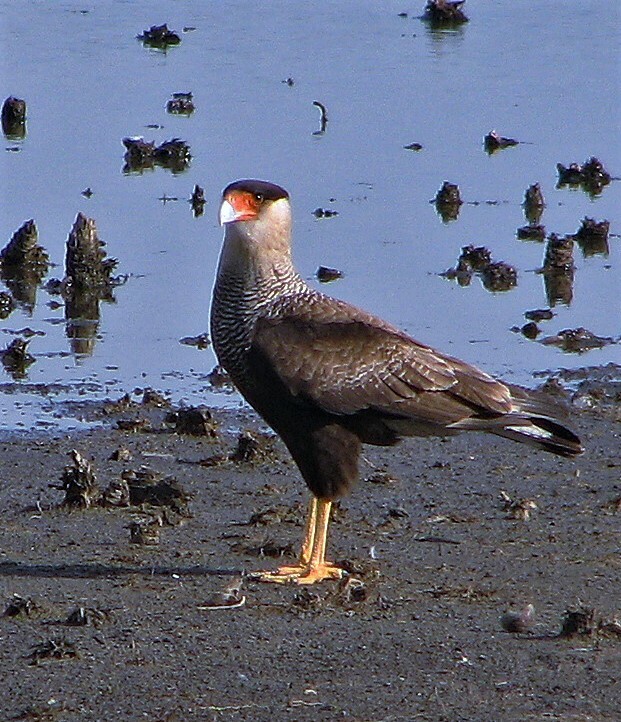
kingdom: Animalia
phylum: Chordata
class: Aves
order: Falconiformes
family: Falconidae
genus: Caracara
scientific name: Caracara plancus
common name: Southern caracara
